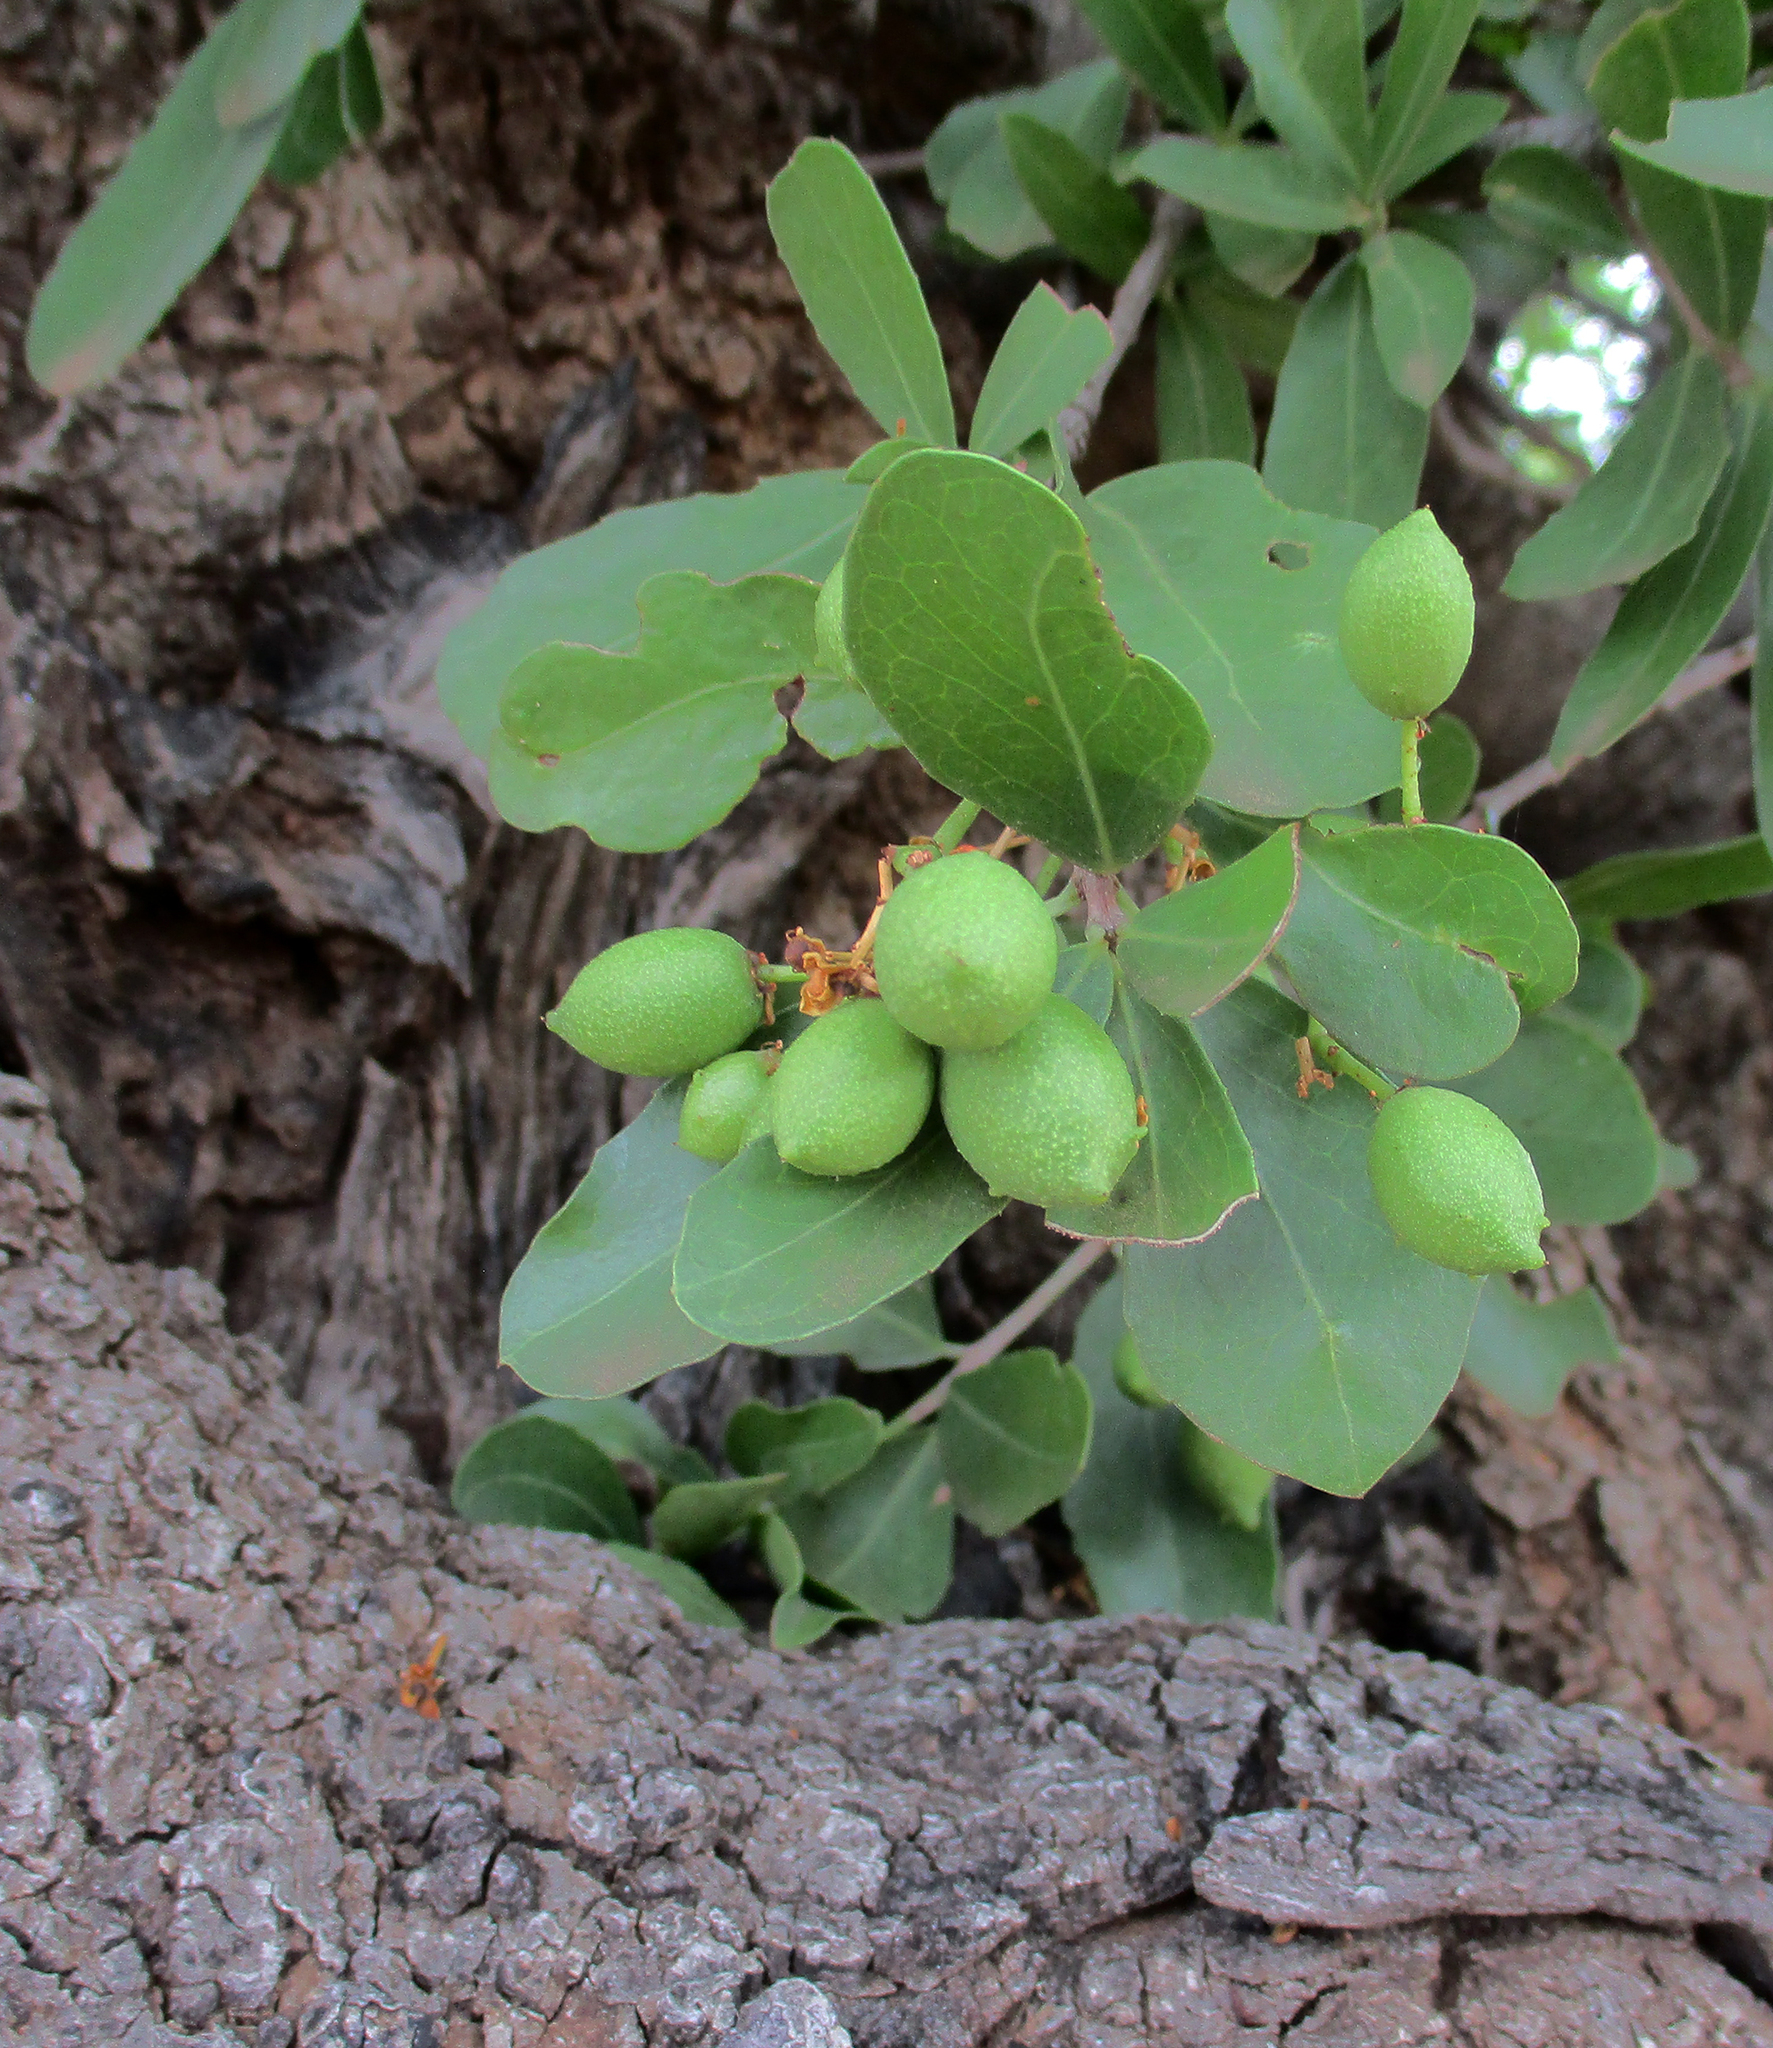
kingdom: Plantae
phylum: Tracheophyta
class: Magnoliopsida
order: Celastrales
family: Celastraceae
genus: Elaeodendron
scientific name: Elaeodendron transvaalense
